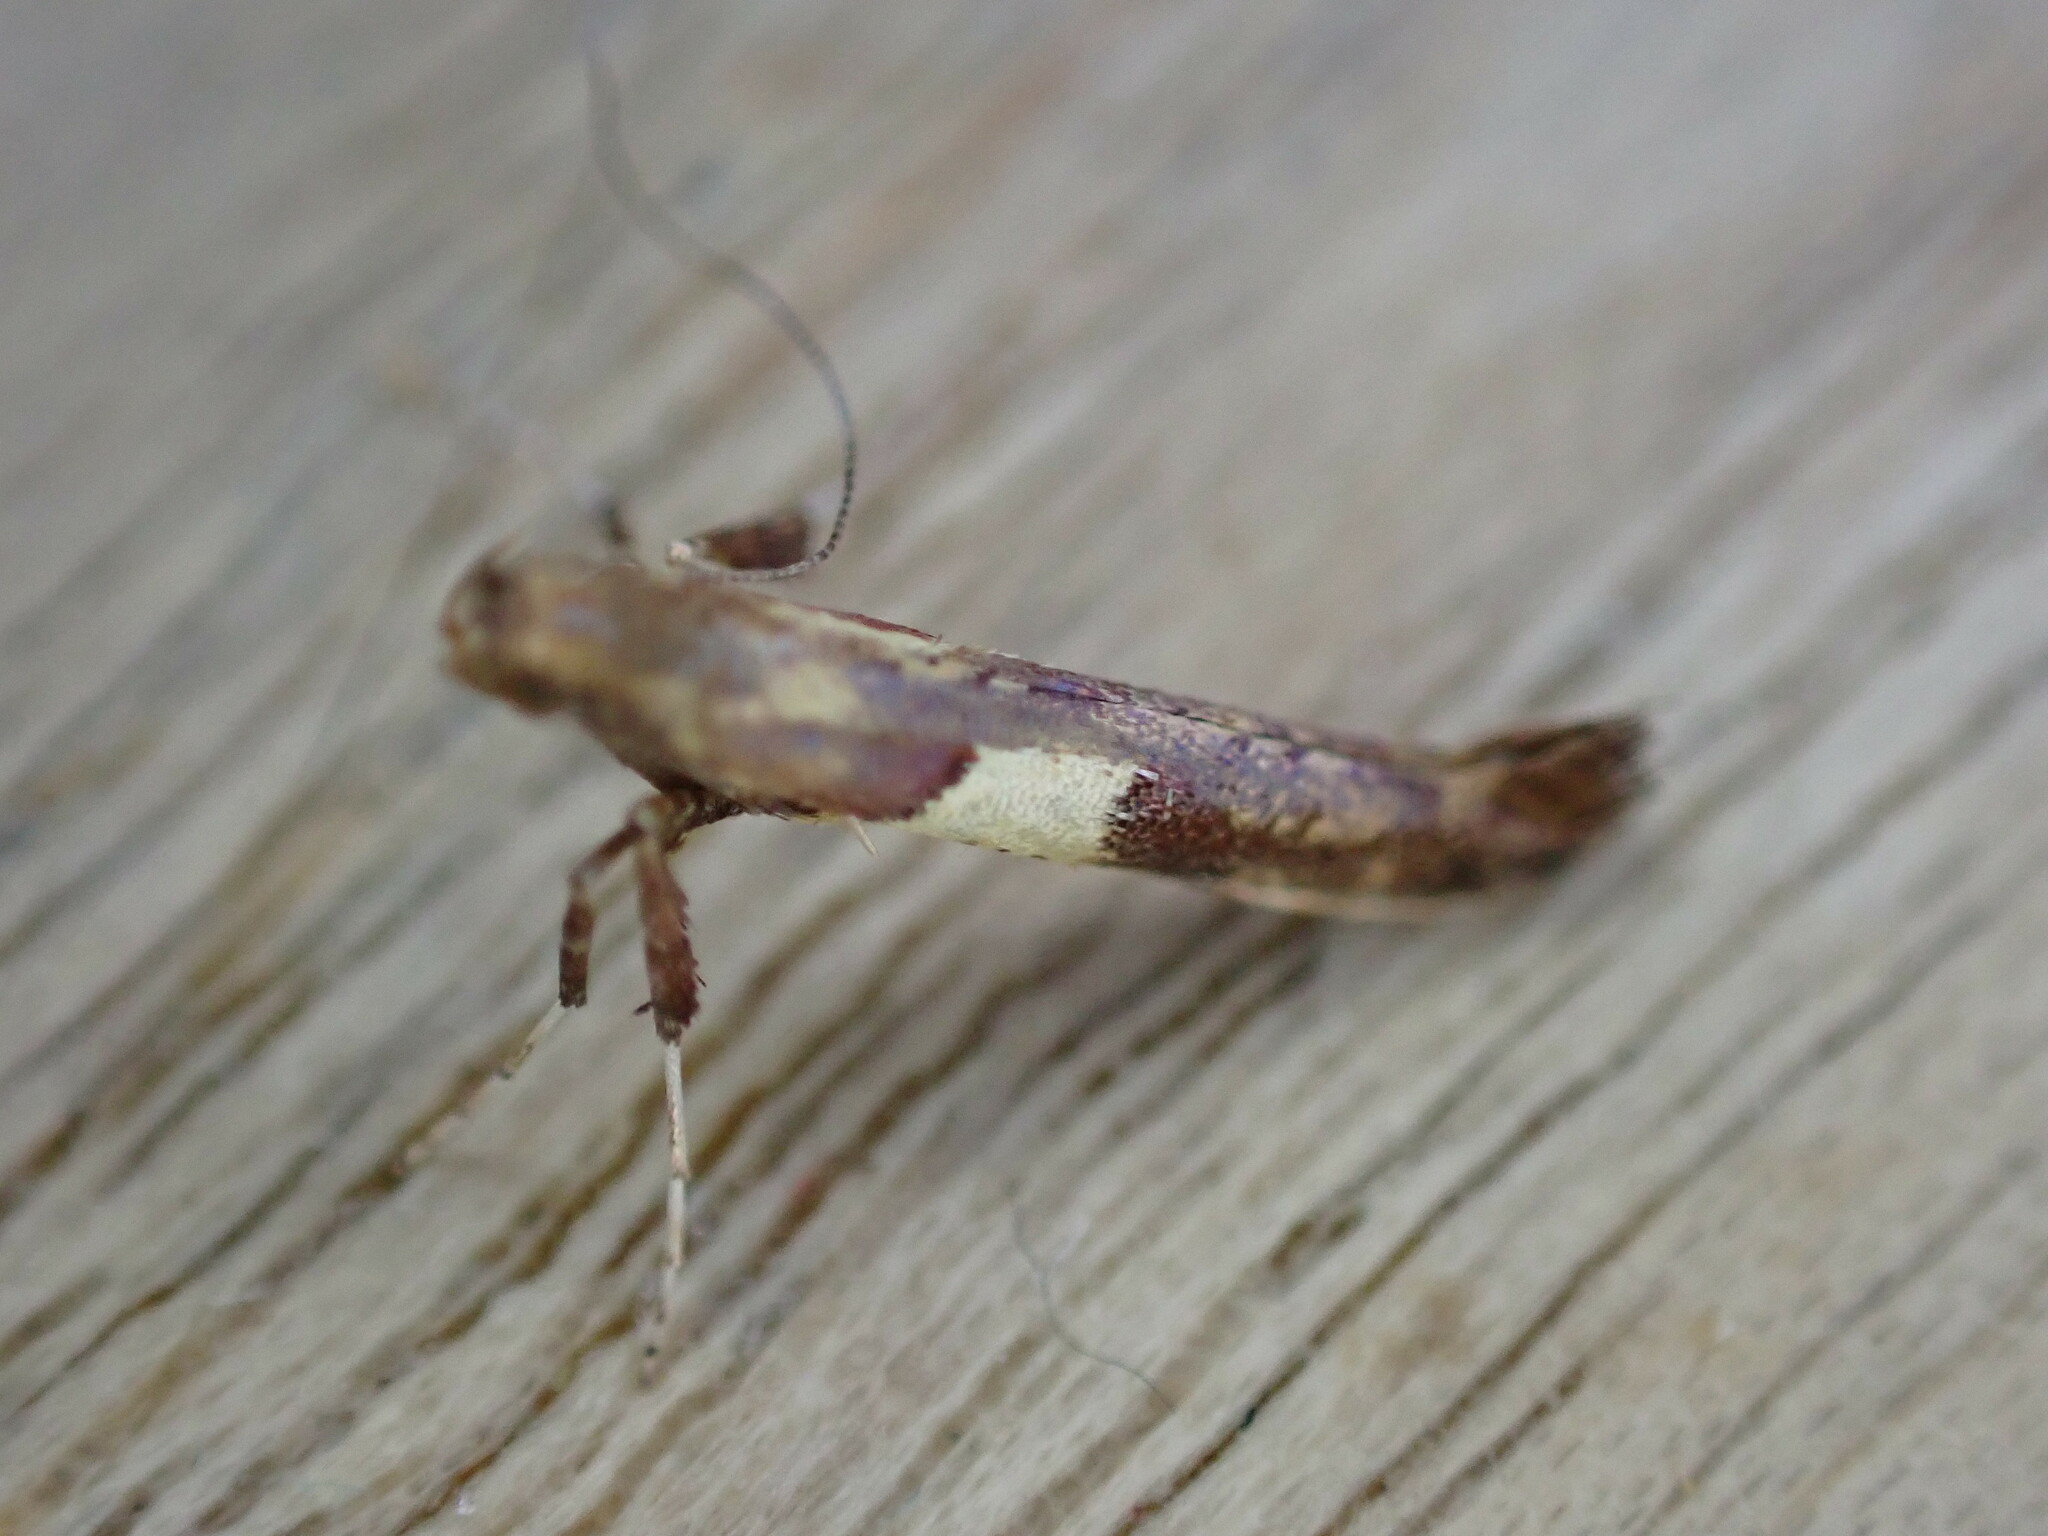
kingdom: Animalia
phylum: Arthropoda
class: Insecta
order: Lepidoptera
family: Gracillariidae
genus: Caloptilia
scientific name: Caloptilia semifascia
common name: Maple slender
